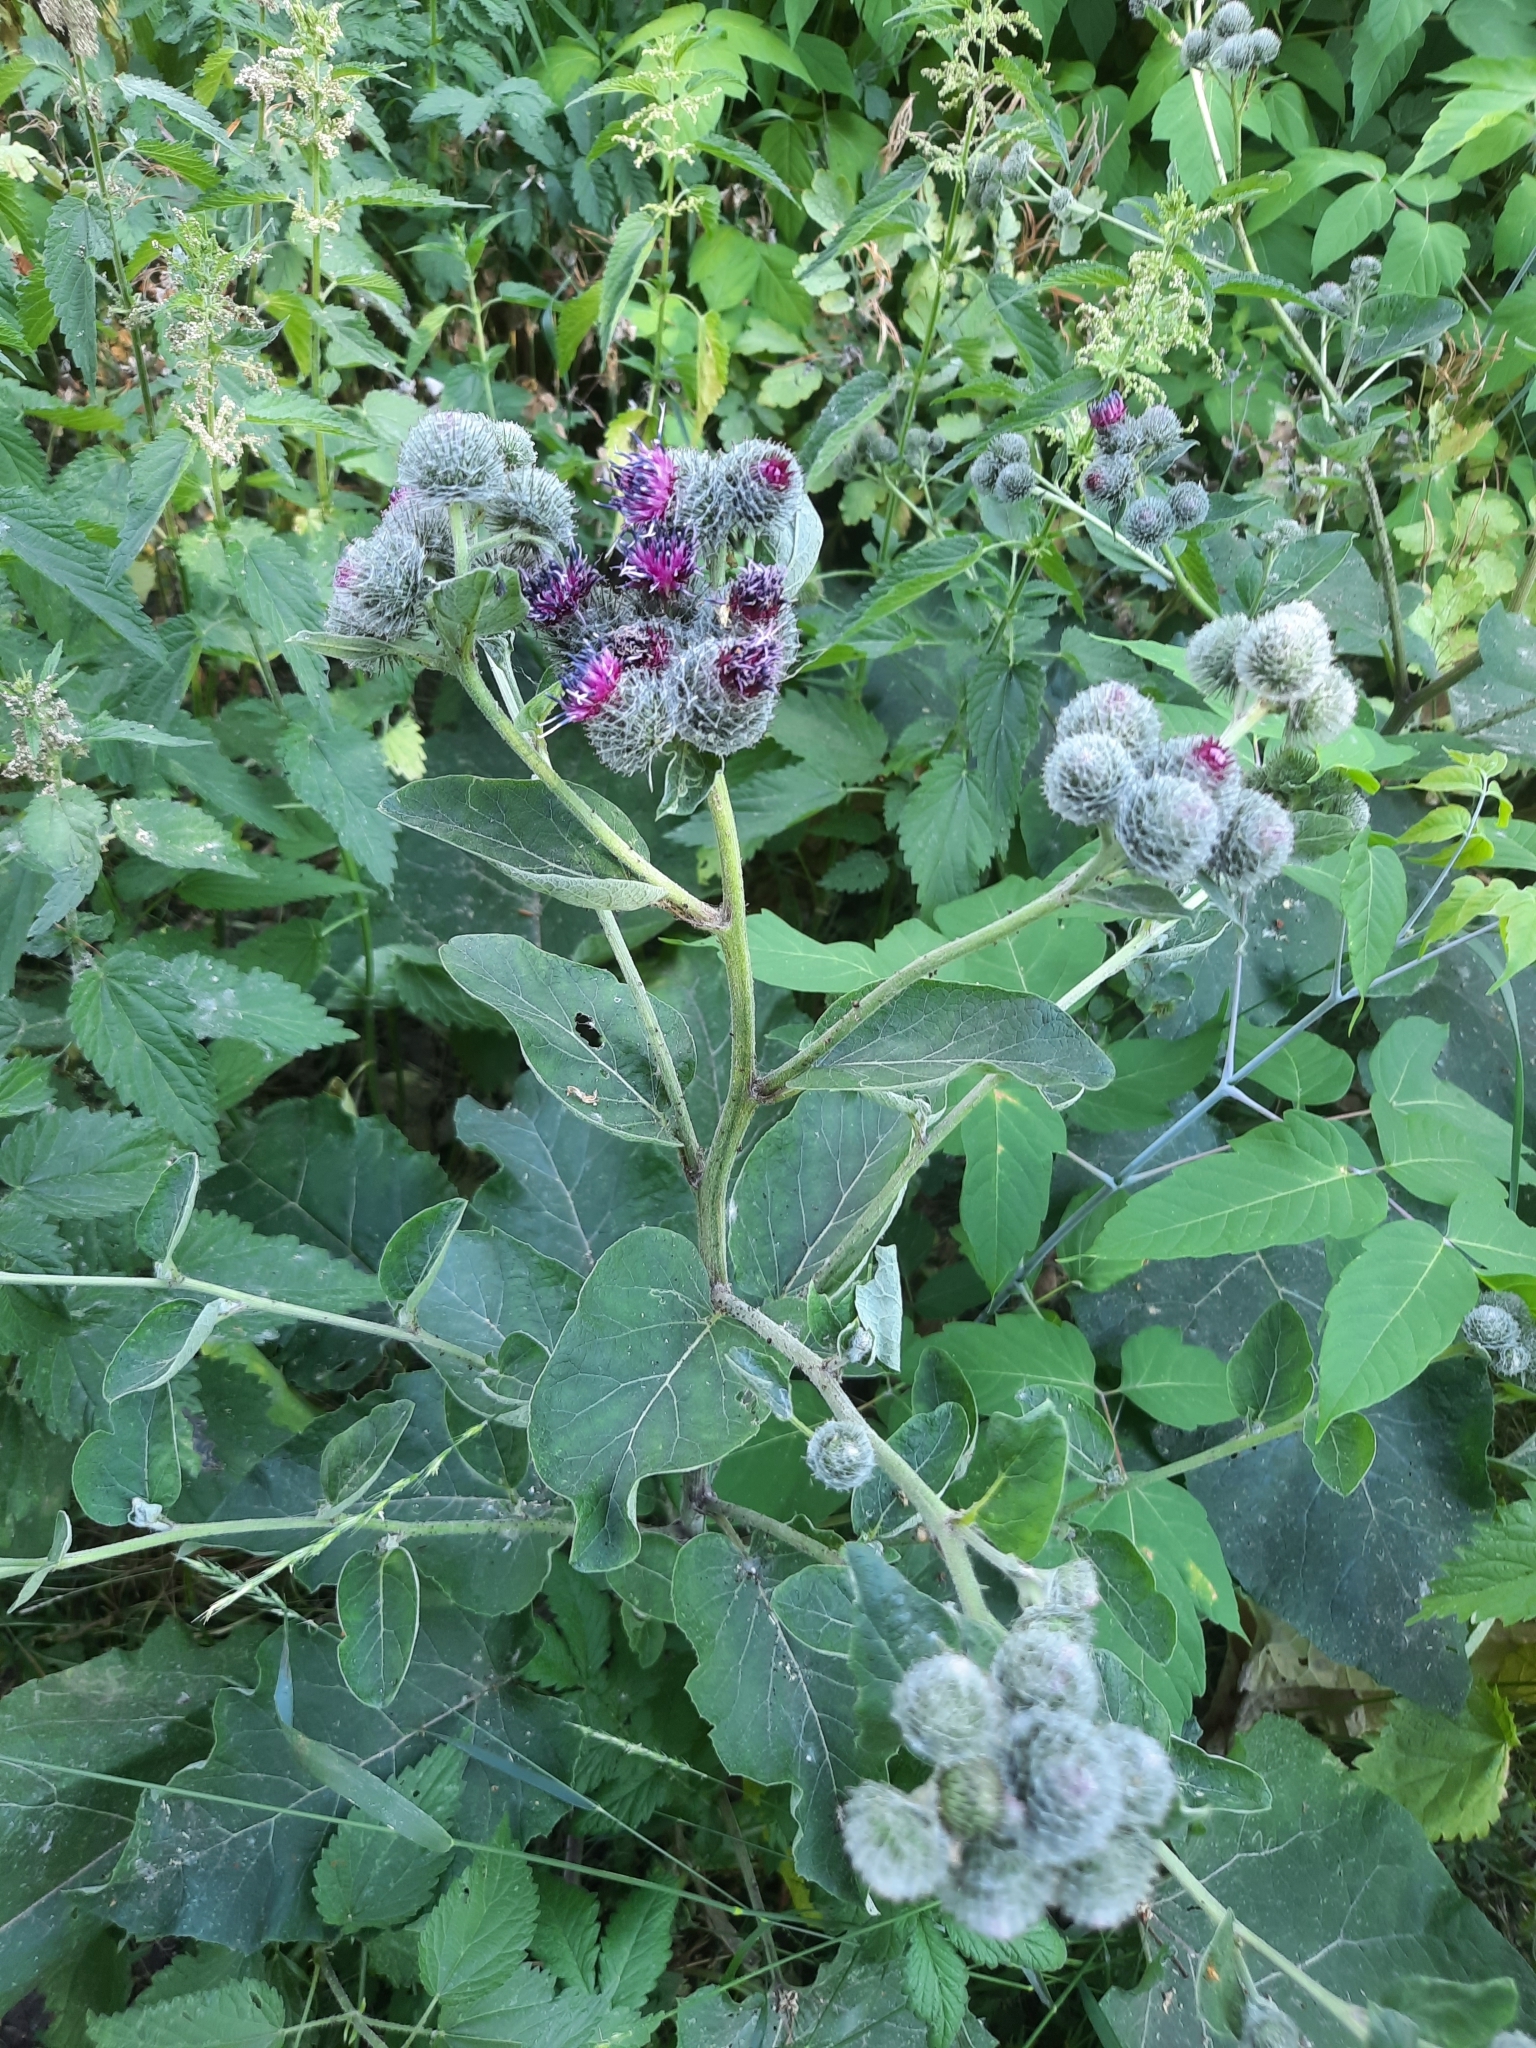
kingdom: Plantae
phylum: Tracheophyta
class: Magnoliopsida
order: Asterales
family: Asteraceae
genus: Arctium
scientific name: Arctium tomentosum
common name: Woolly burdock
